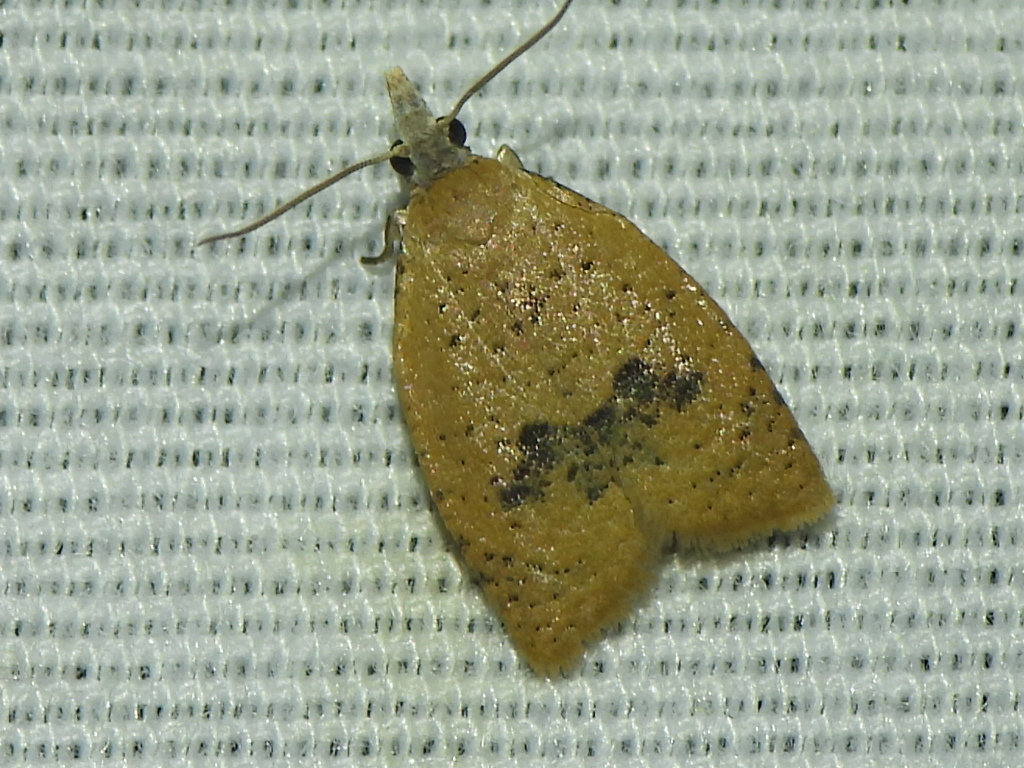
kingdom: Animalia
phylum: Arthropoda
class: Insecta
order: Lepidoptera
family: Tortricidae
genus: Sparganothoides
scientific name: Sparganothoides lentiginosana
